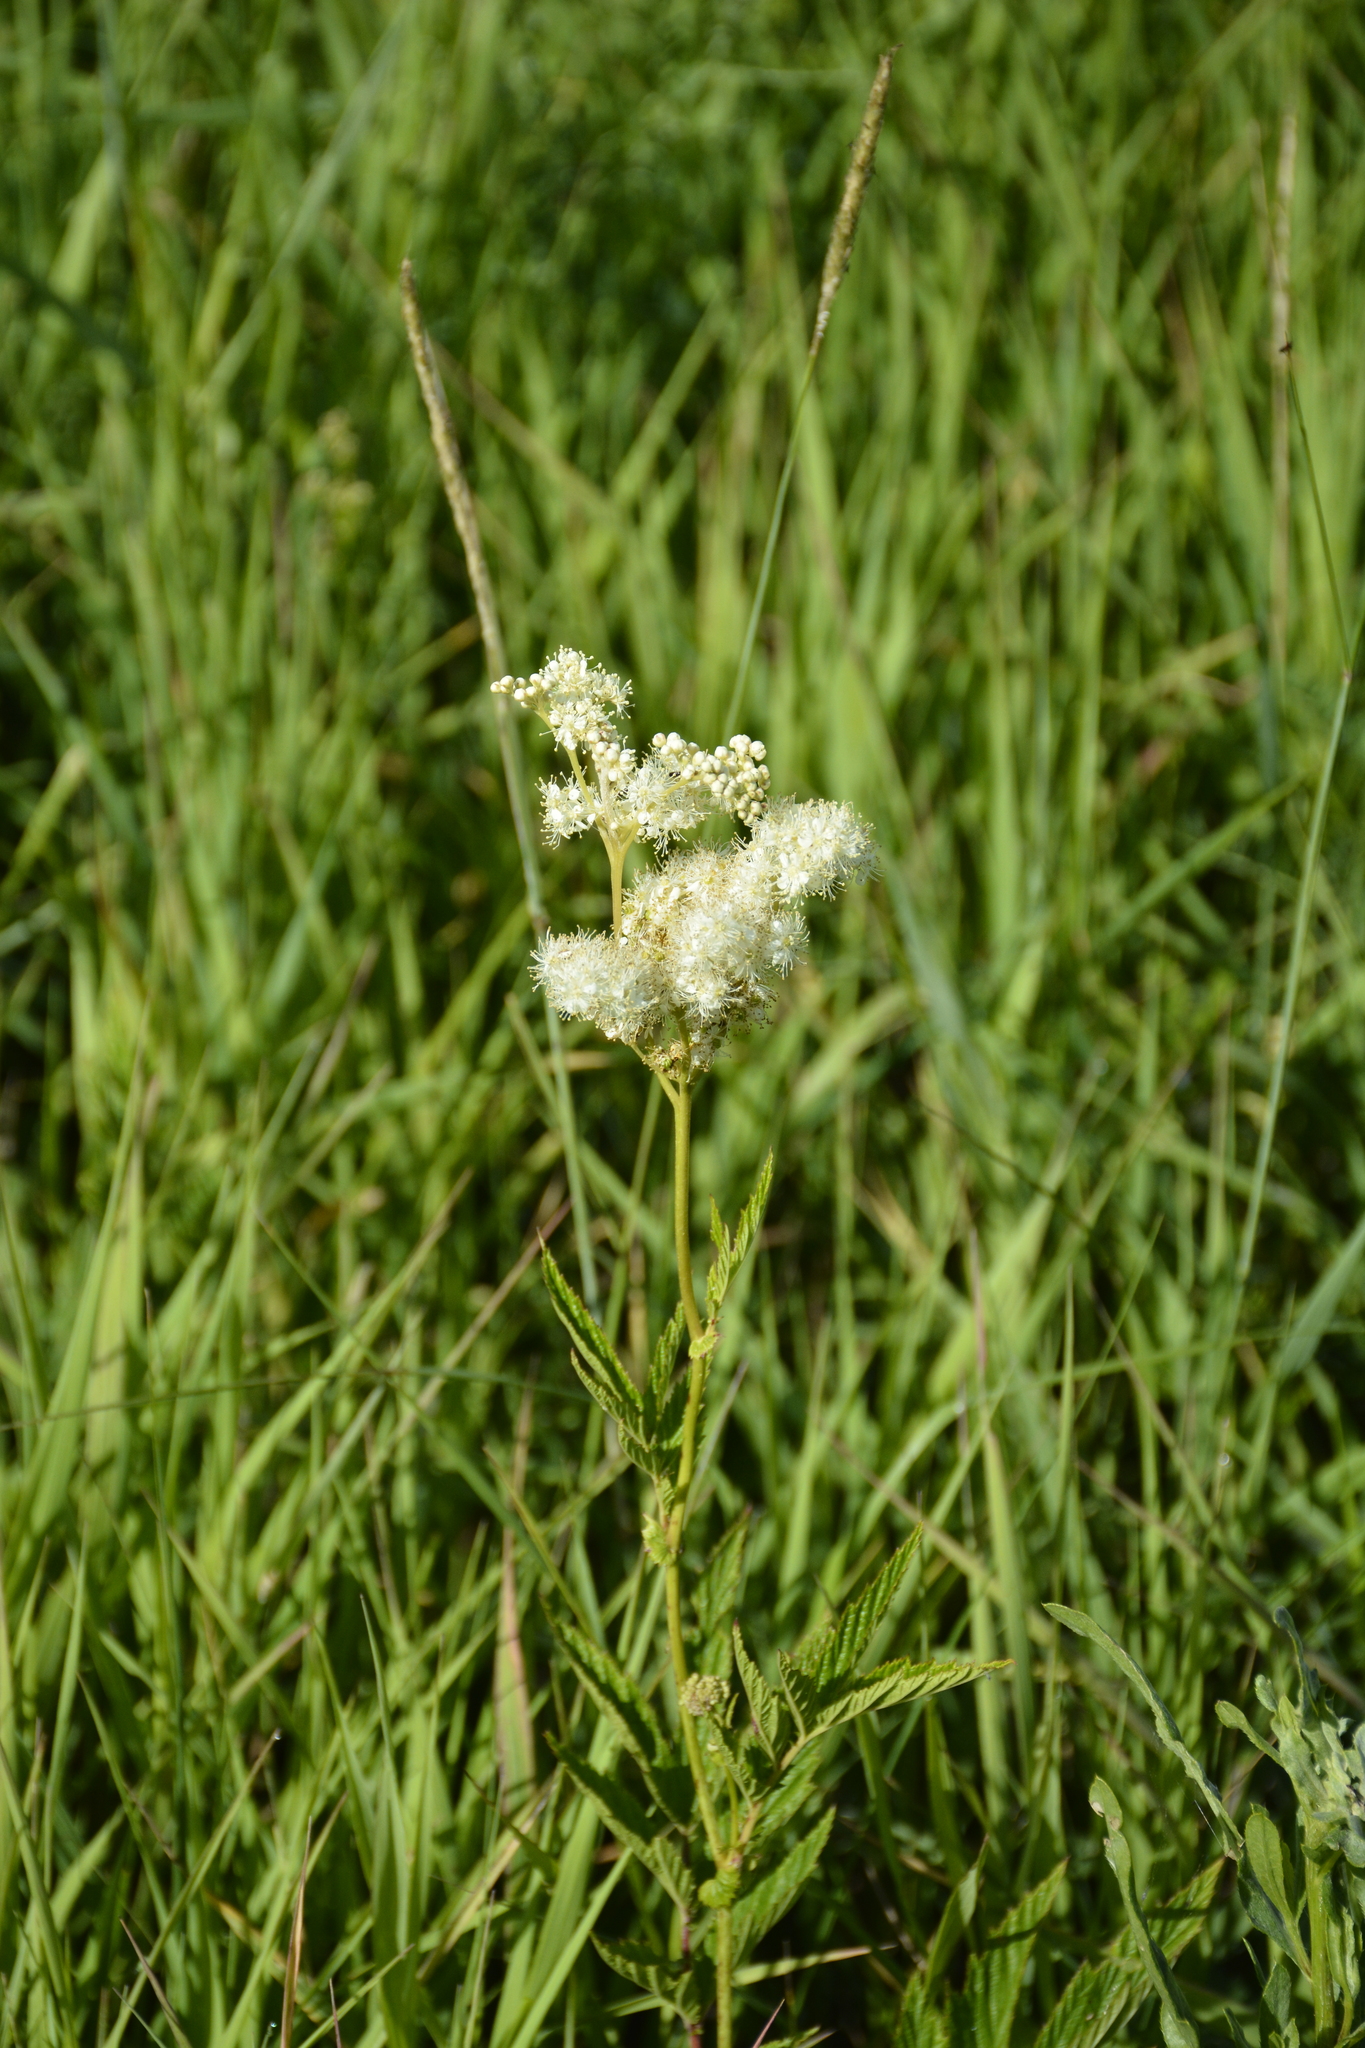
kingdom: Plantae
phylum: Tracheophyta
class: Magnoliopsida
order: Rosales
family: Rosaceae
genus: Filipendula
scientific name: Filipendula ulmaria
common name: Meadowsweet
